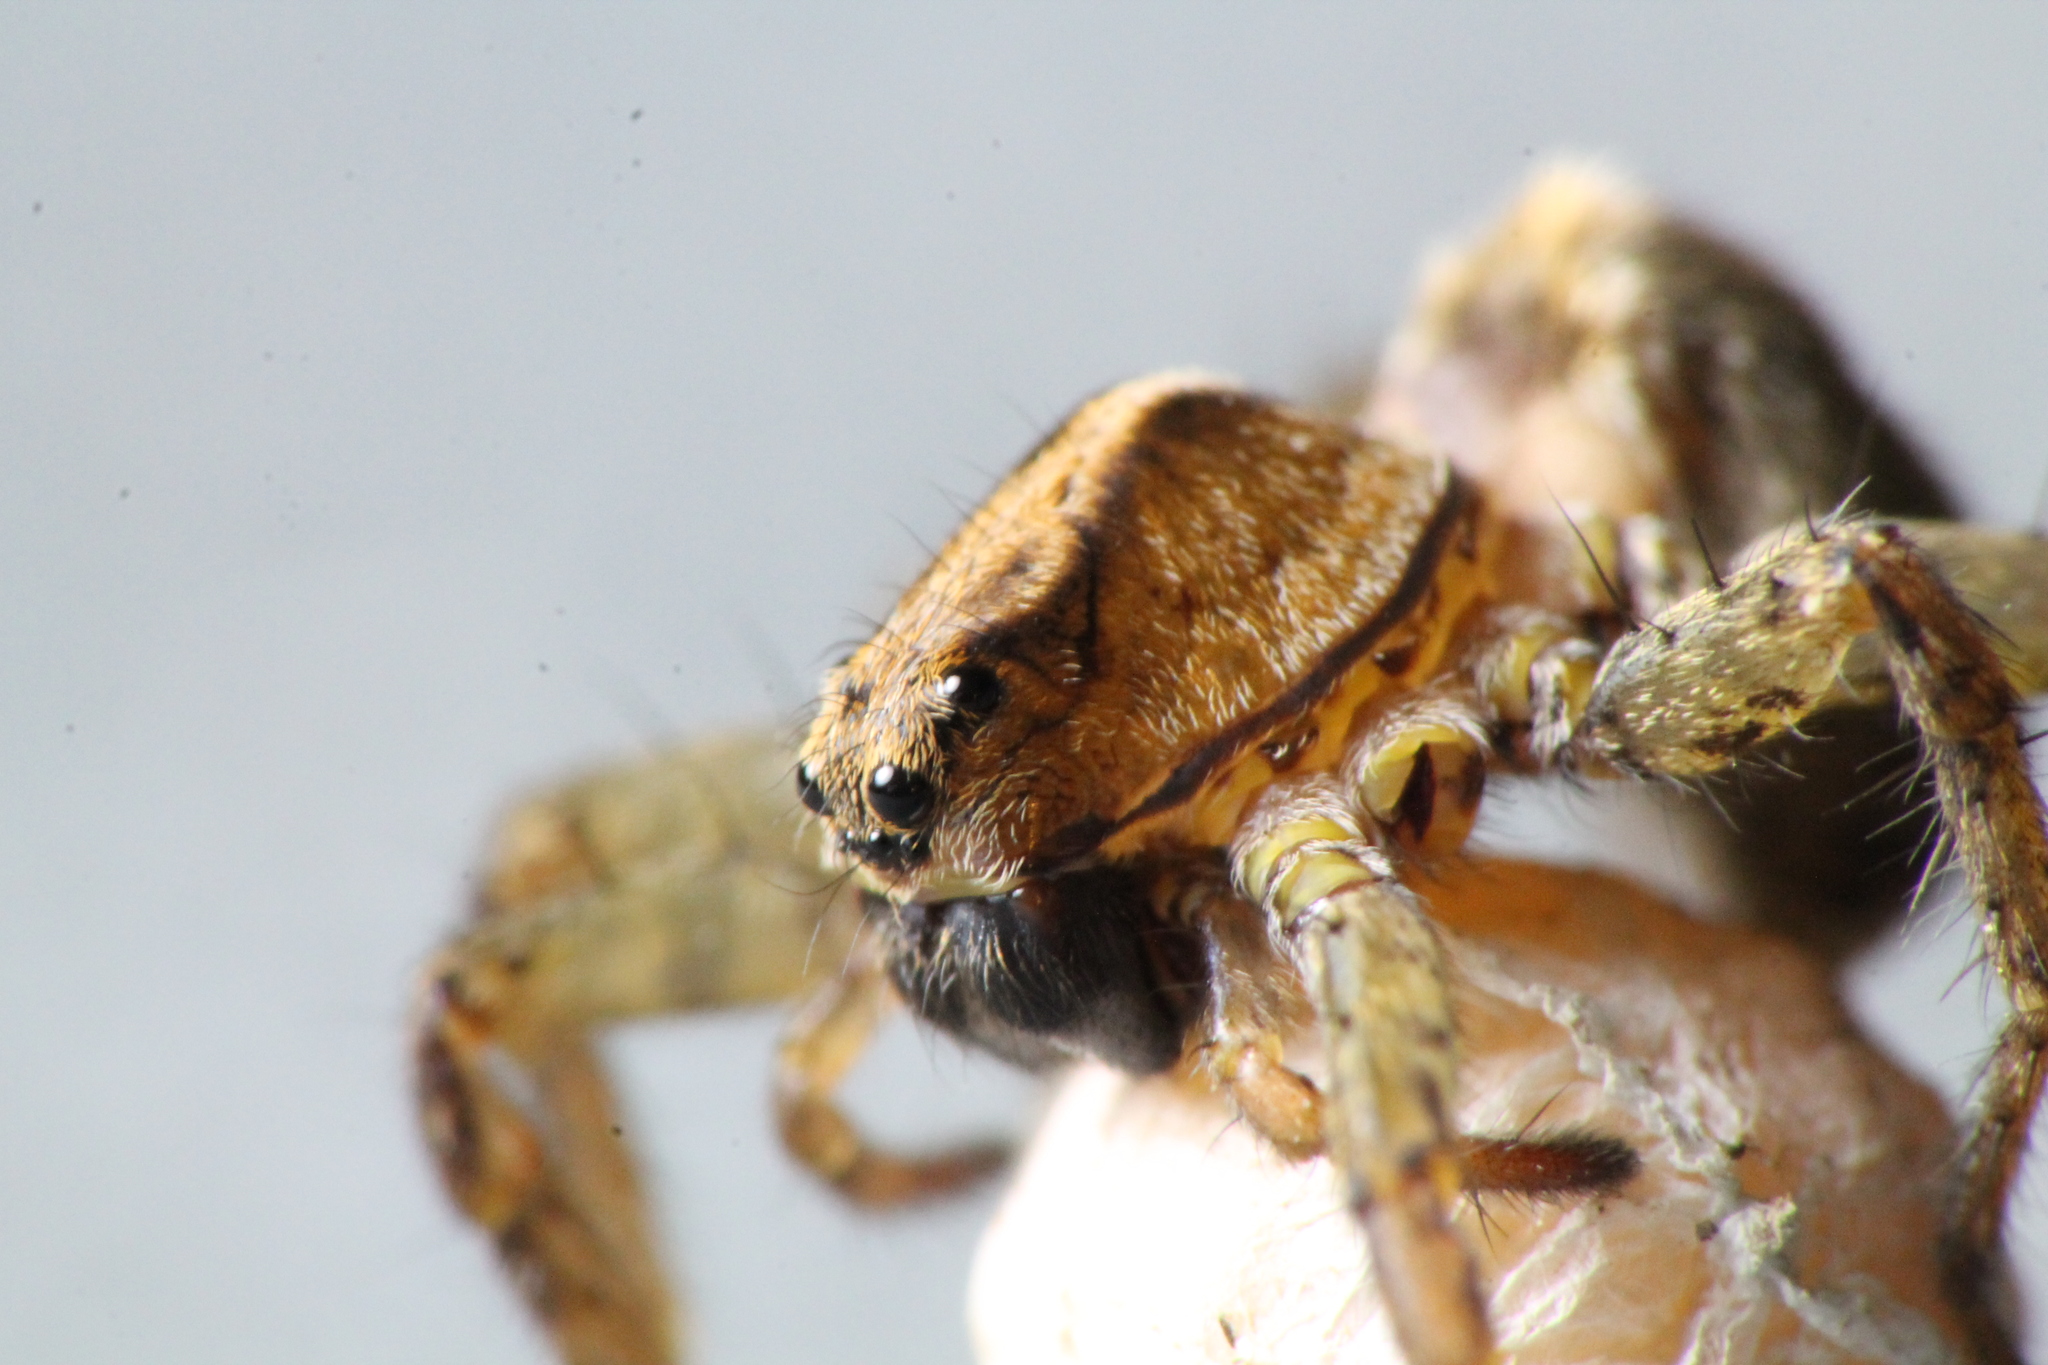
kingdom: Animalia
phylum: Arthropoda
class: Arachnida
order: Araneae
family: Lycosidae
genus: Anoteropsis
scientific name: Anoteropsis hilaris
